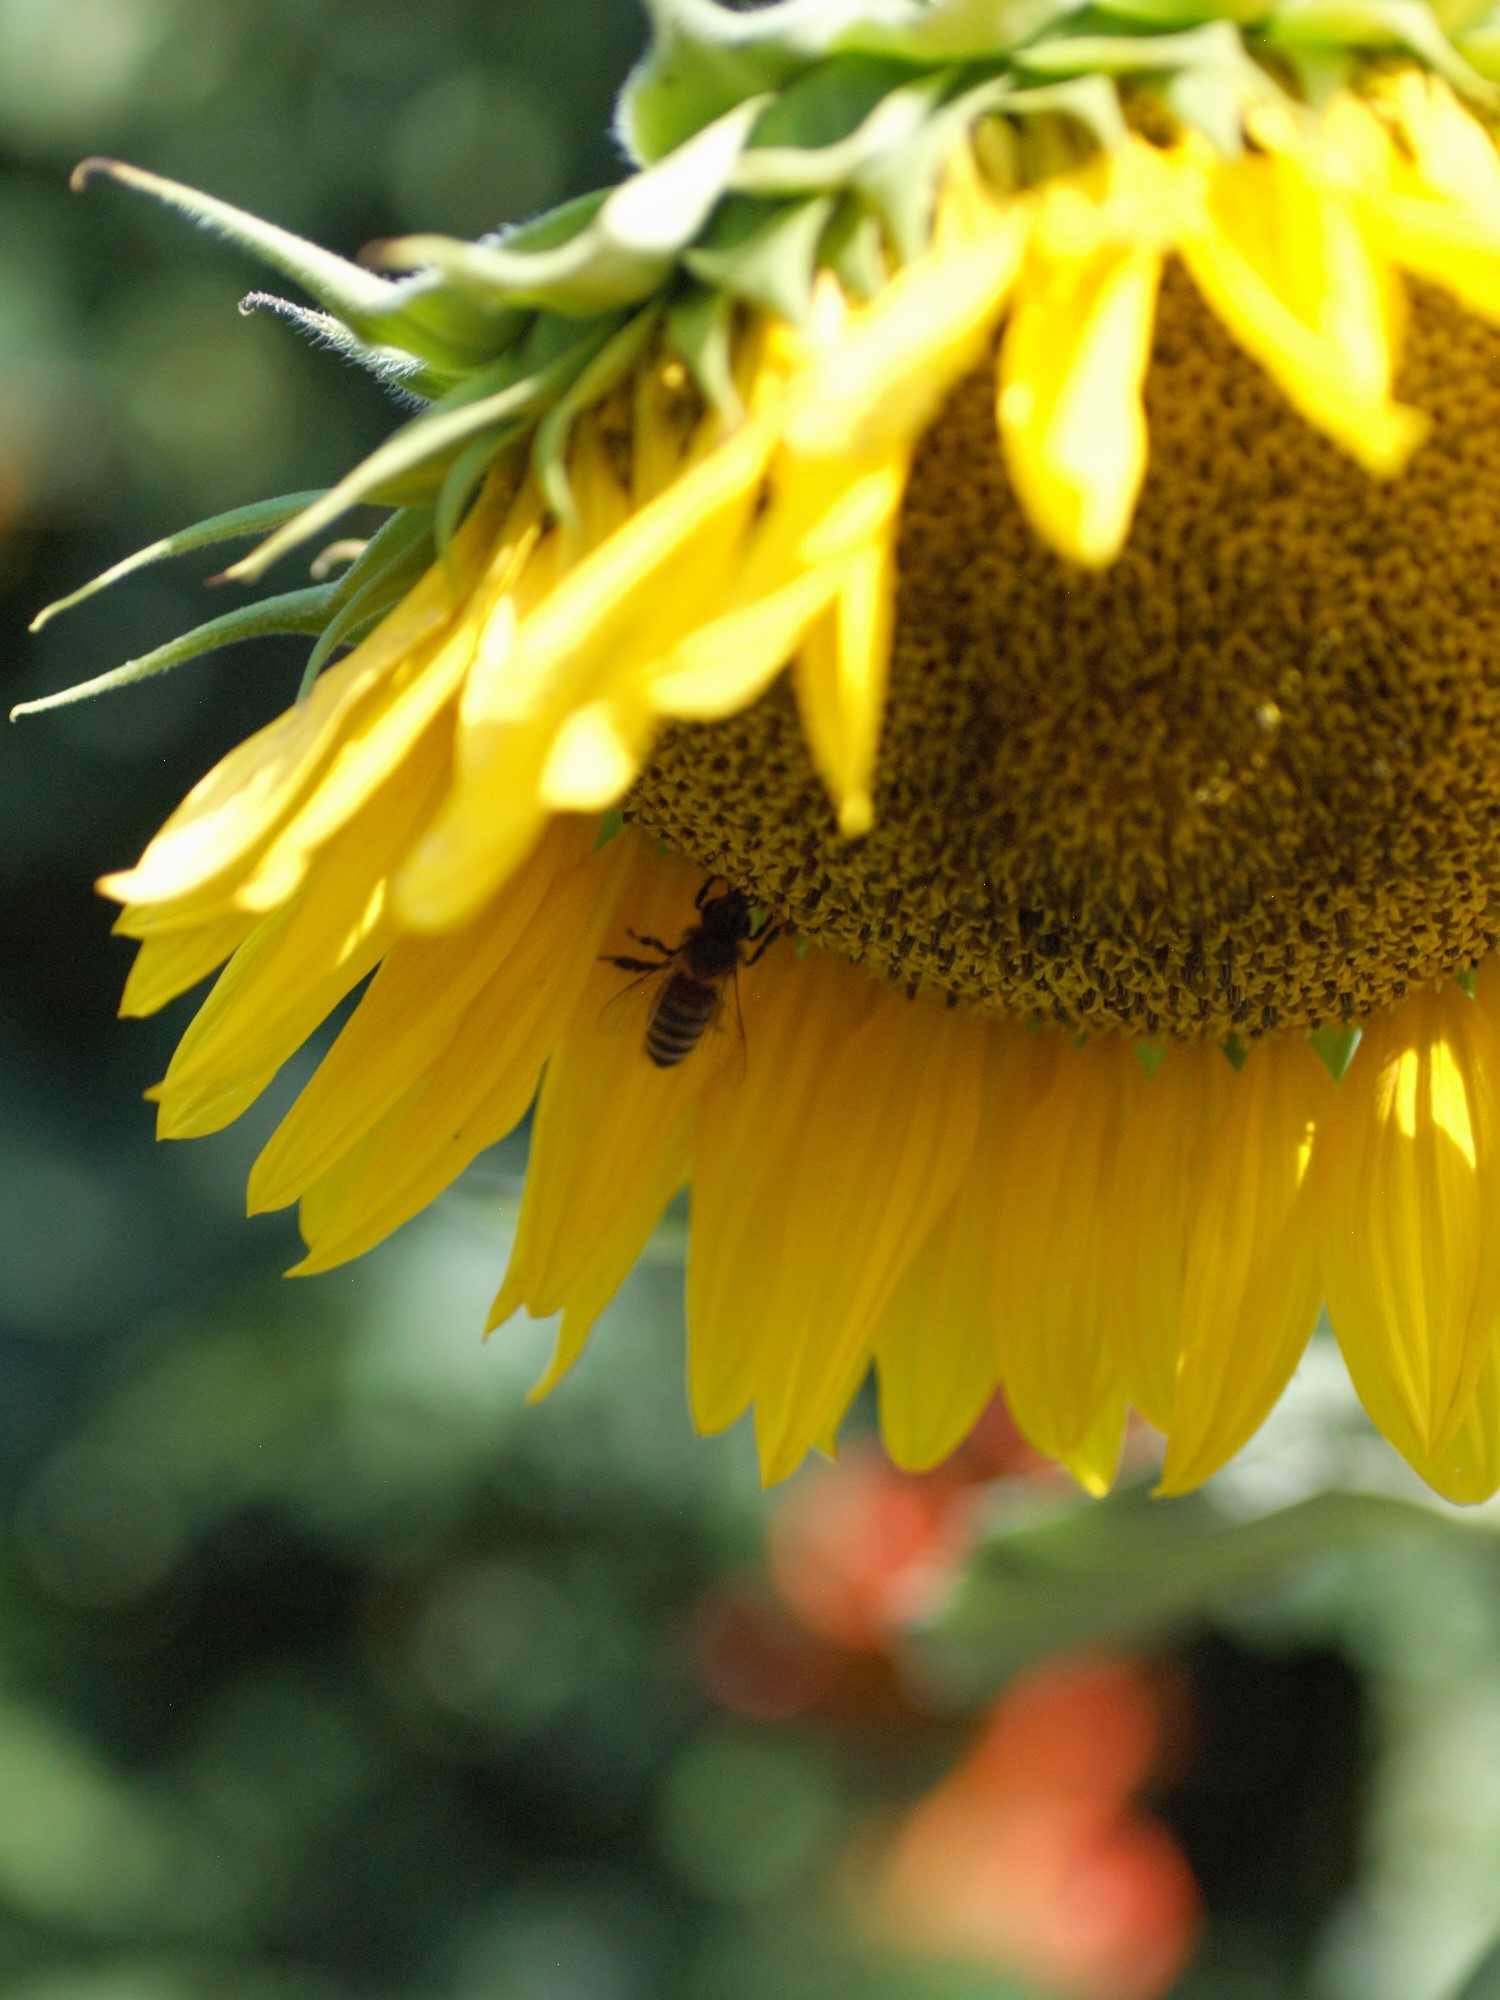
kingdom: Animalia
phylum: Arthropoda
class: Insecta
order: Hymenoptera
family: Apidae
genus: Apis
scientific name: Apis mellifera
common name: Honey bee
